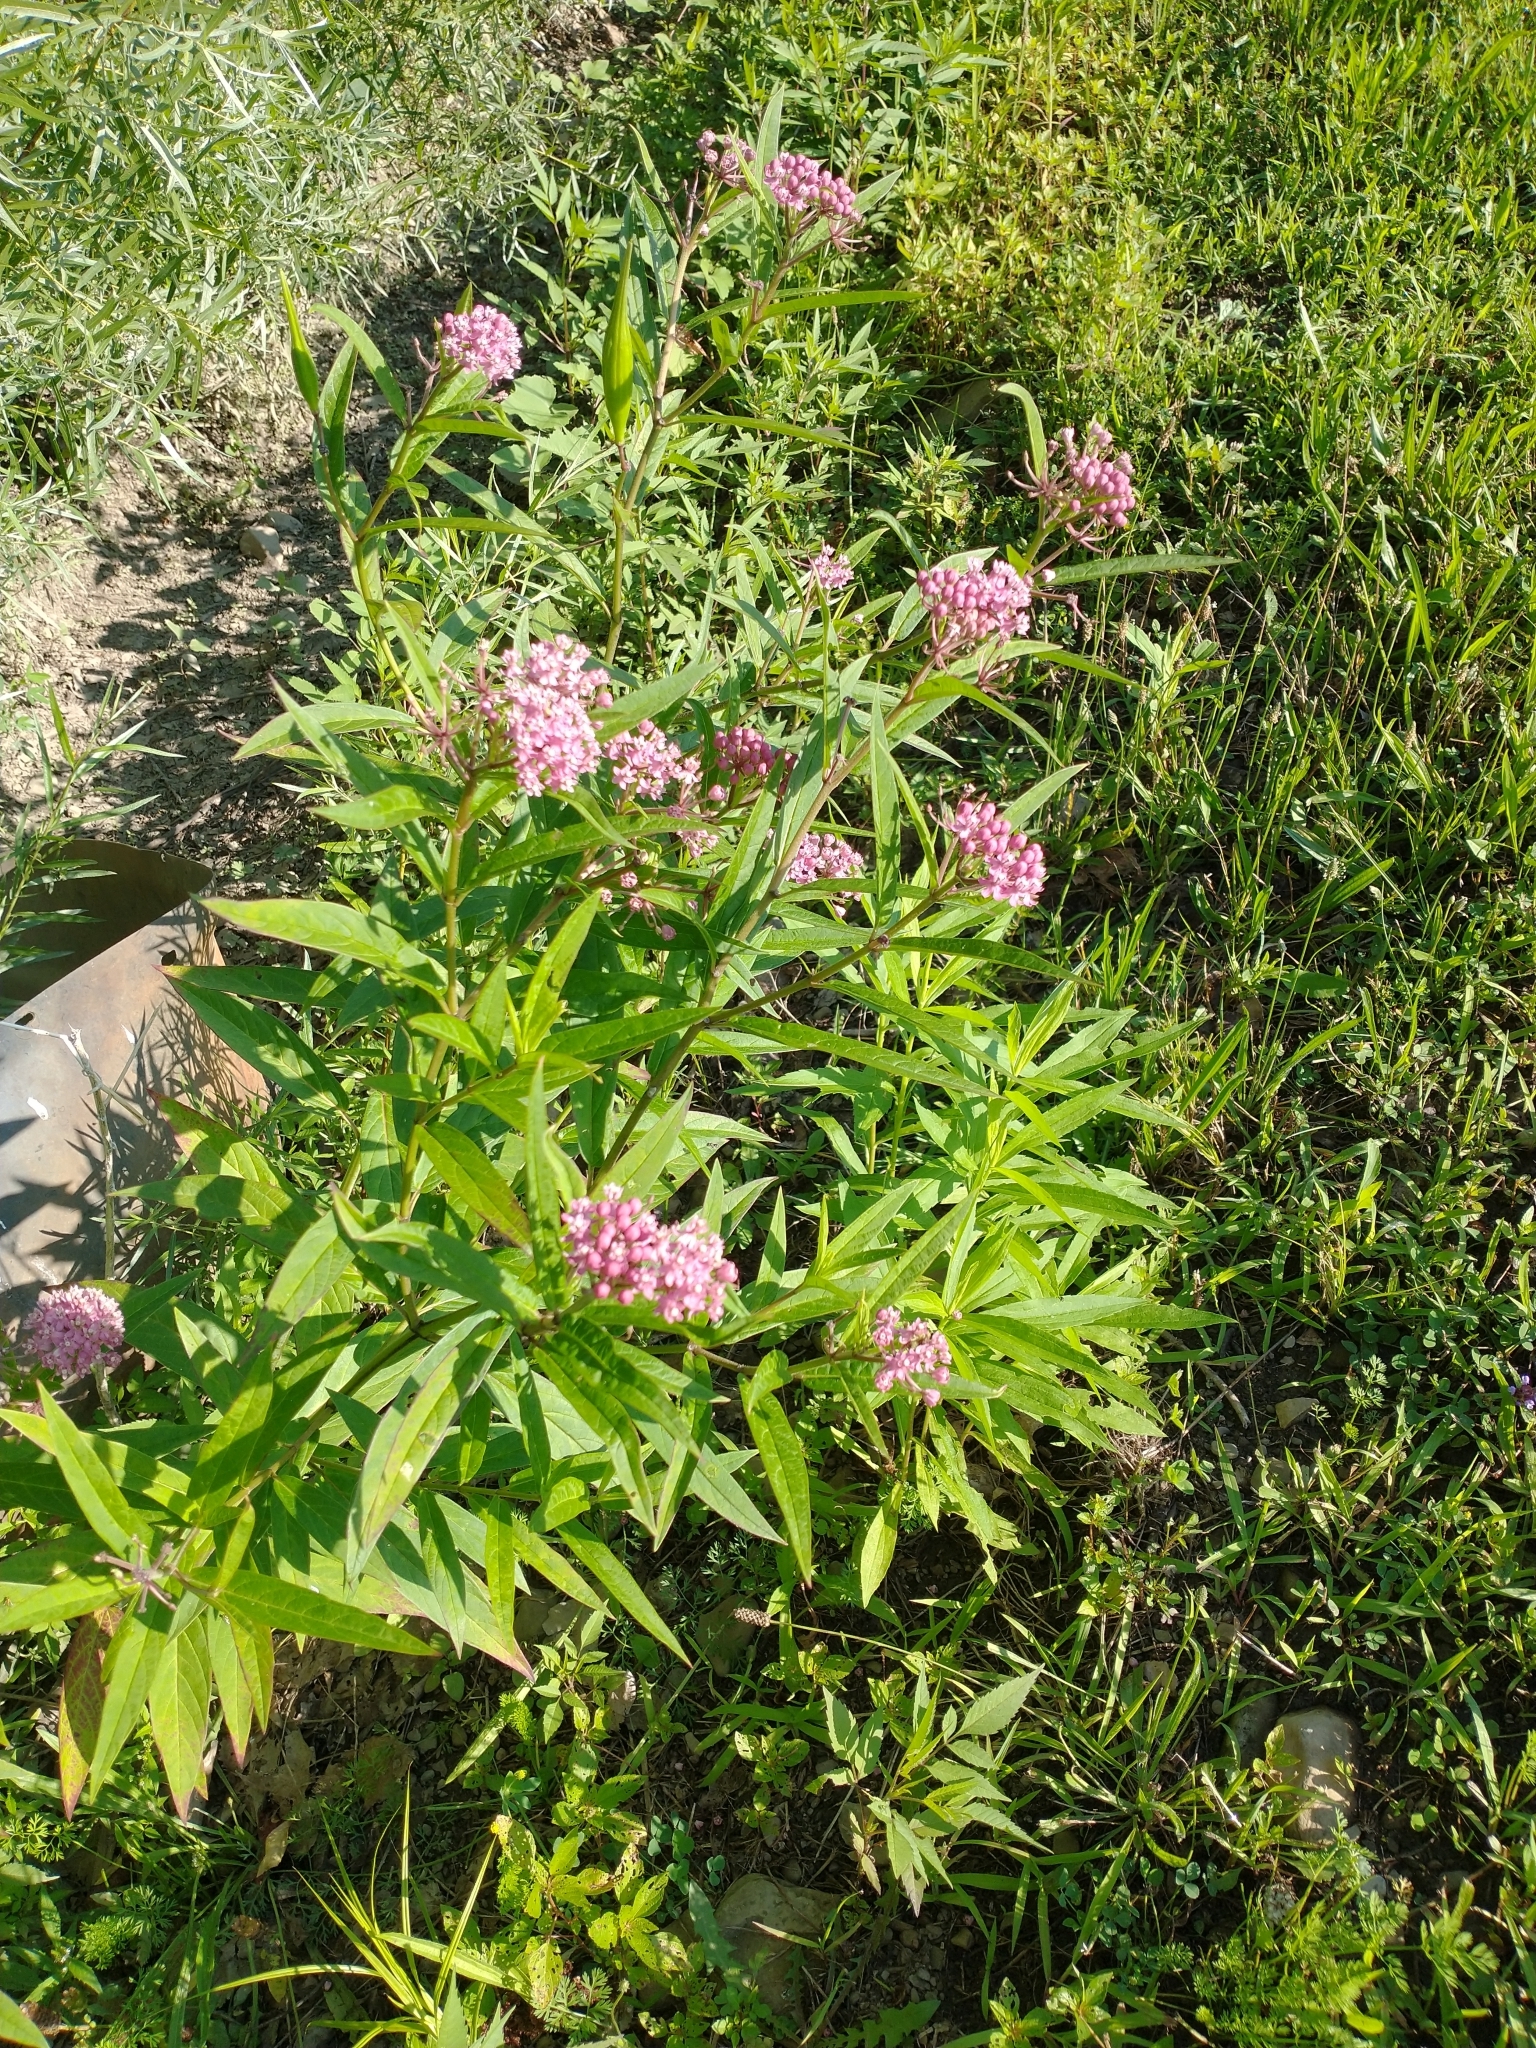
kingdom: Plantae
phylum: Tracheophyta
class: Magnoliopsida
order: Gentianales
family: Apocynaceae
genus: Asclepias
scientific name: Asclepias incarnata
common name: Swamp milkweed
